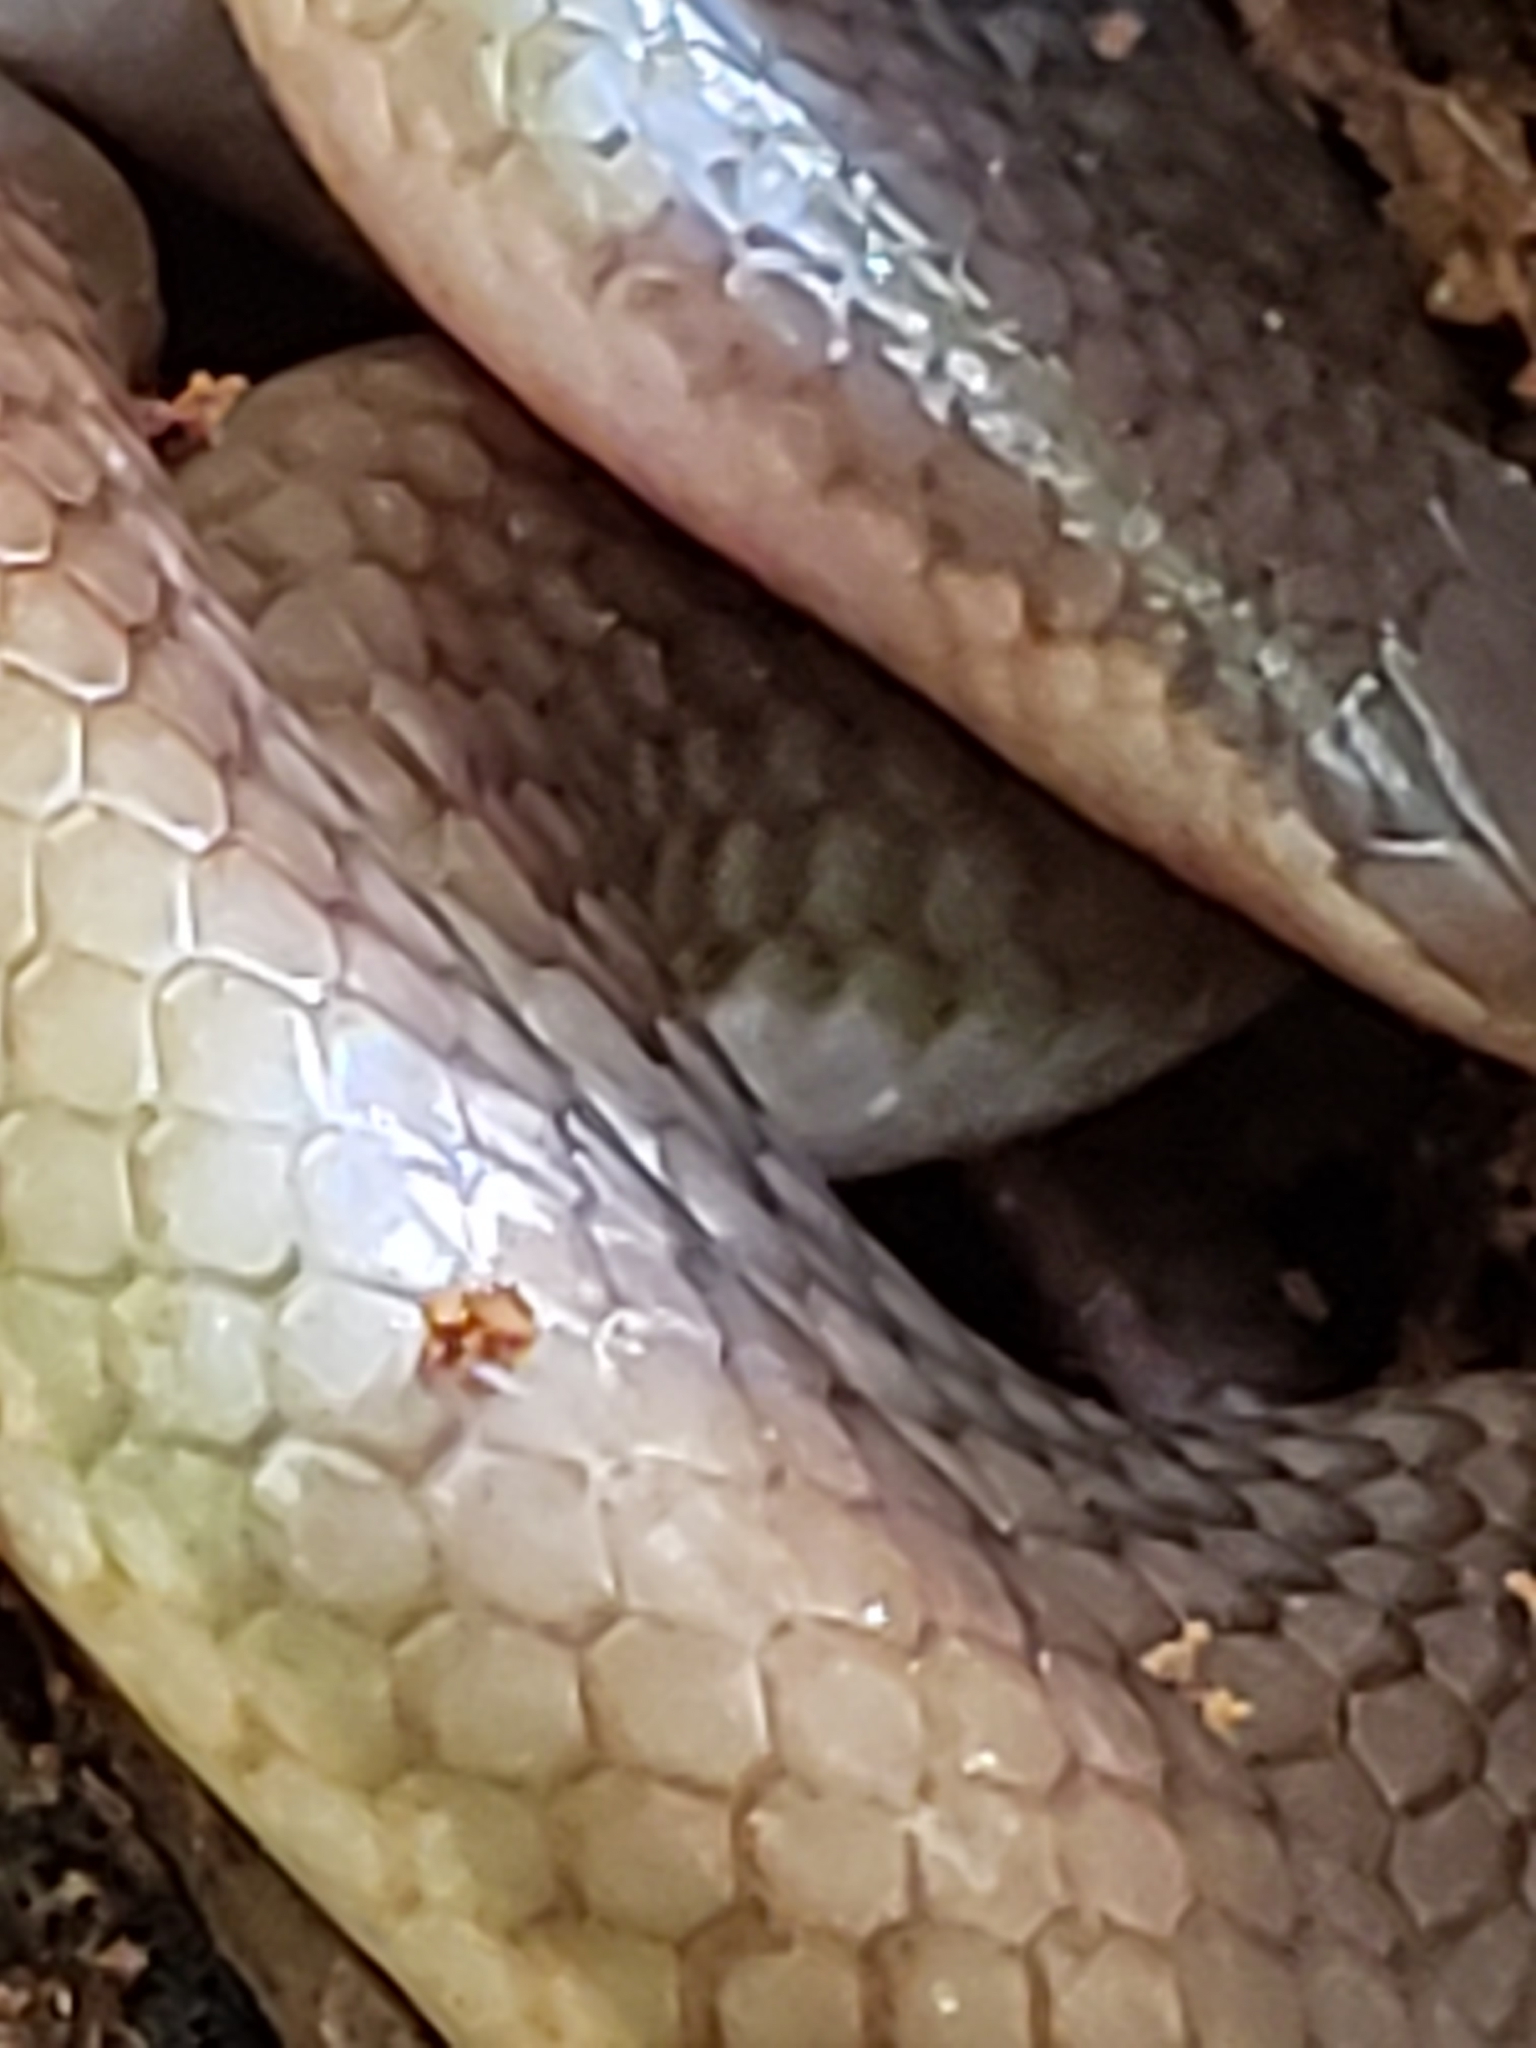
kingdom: Animalia
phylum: Chordata
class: Squamata
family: Colubridae
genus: Carphophis
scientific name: Carphophis amoenus
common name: Eastern worm snake
